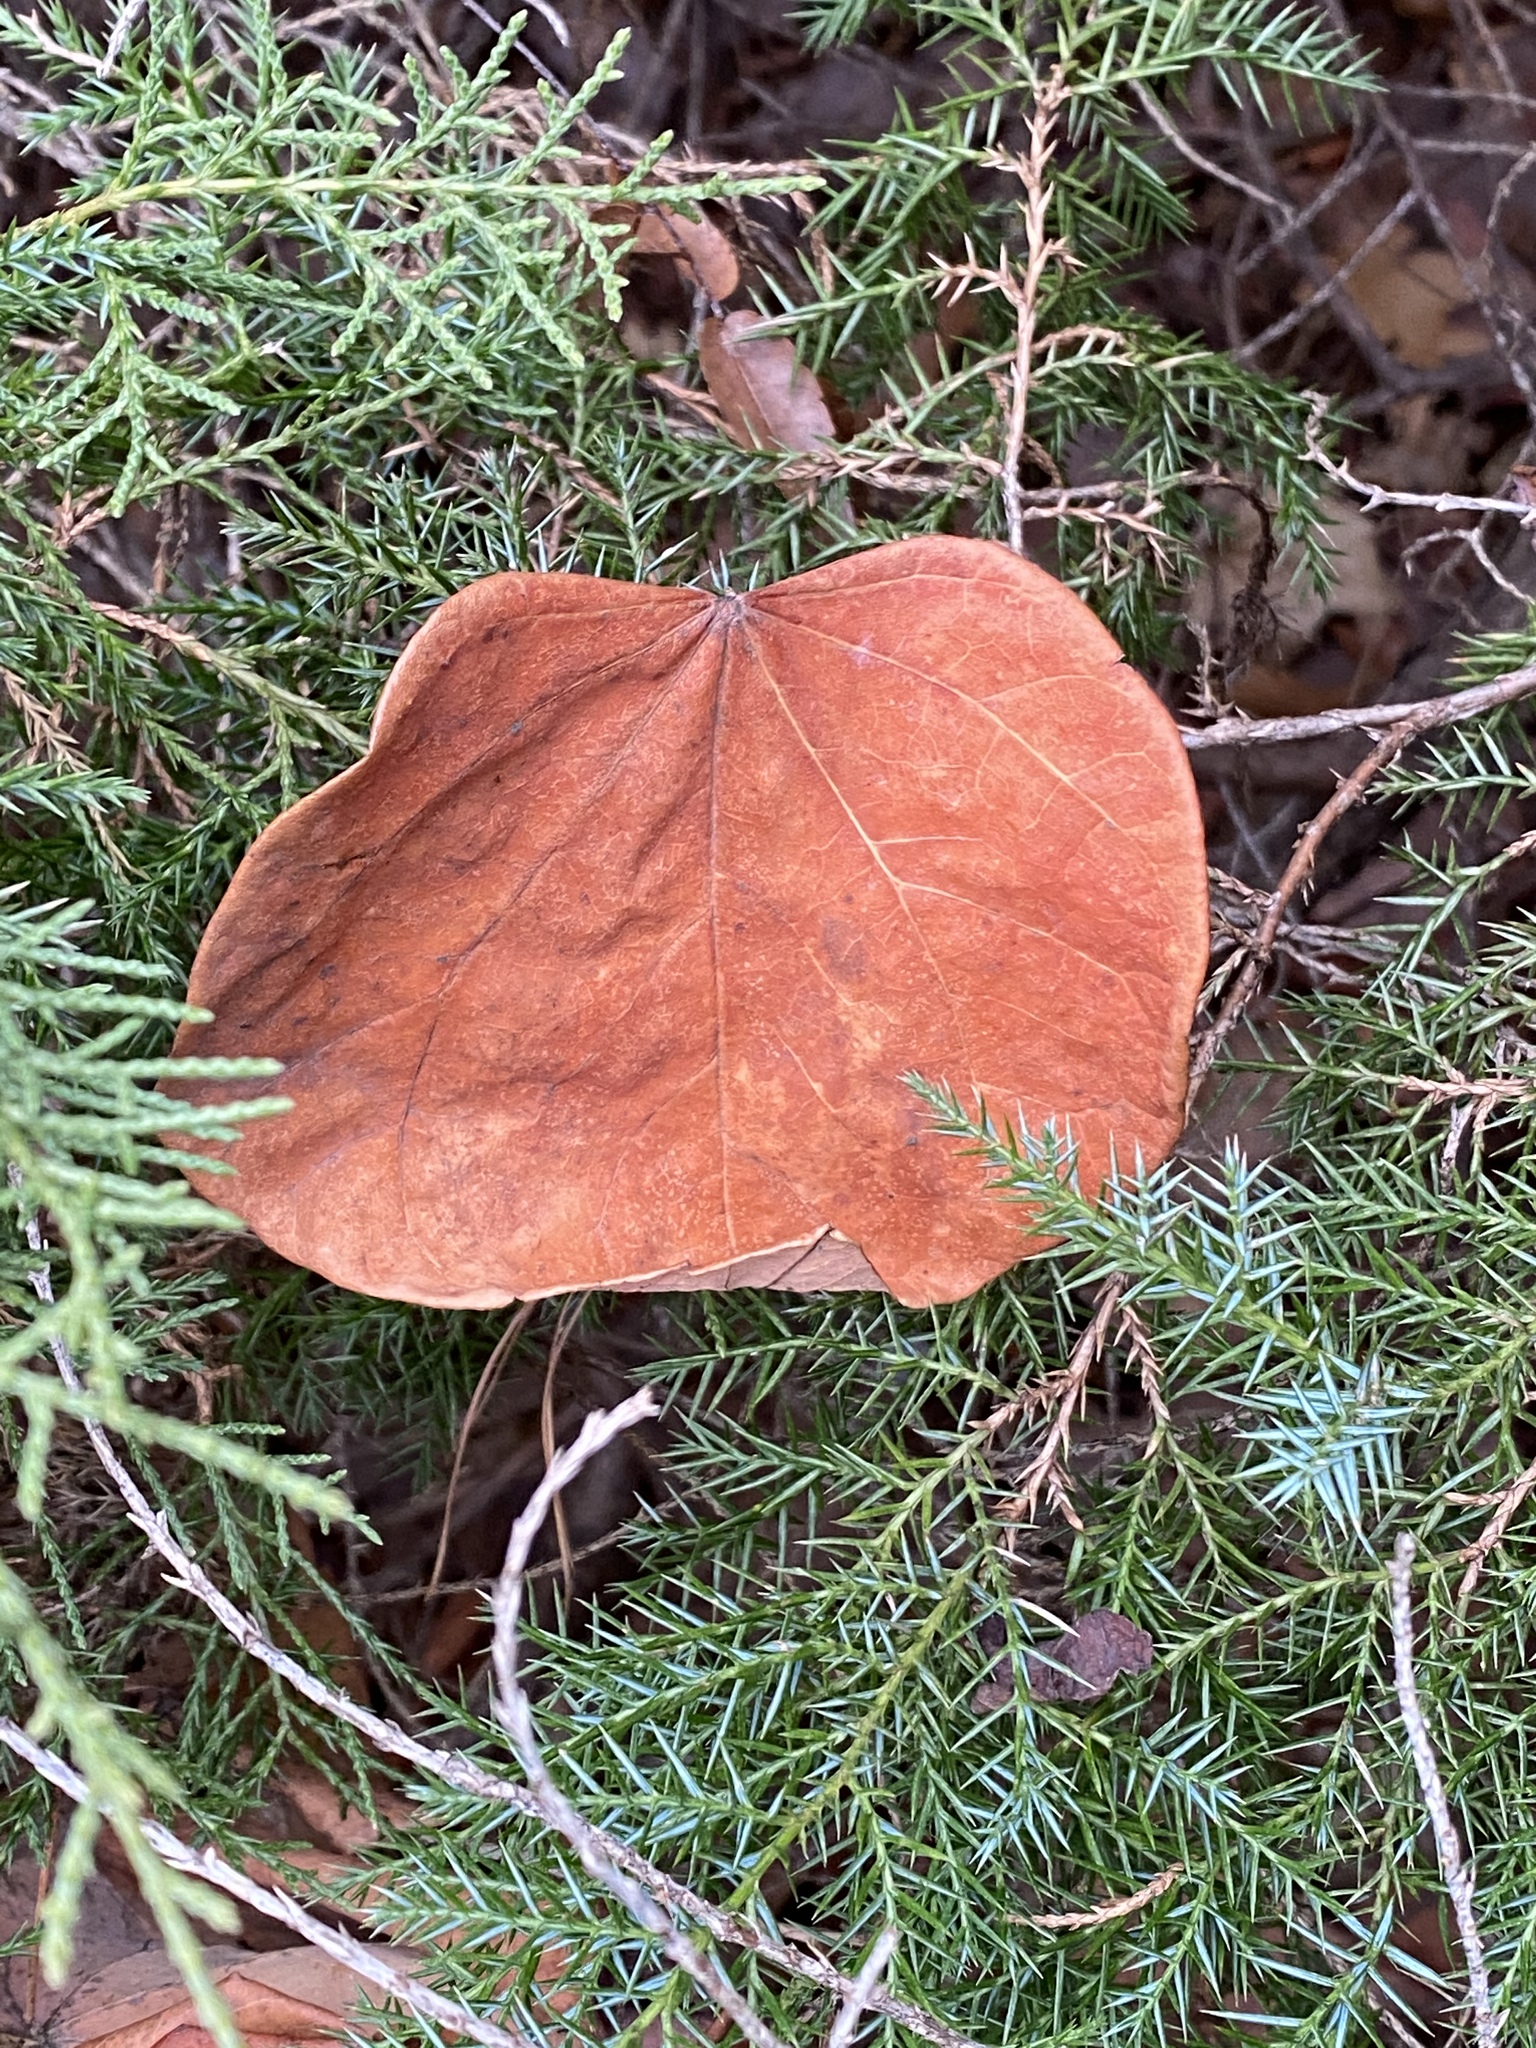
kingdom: Plantae
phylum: Tracheophyta
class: Magnoliopsida
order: Fabales
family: Fabaceae
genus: Cercis
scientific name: Cercis canadensis
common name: Eastern redbud
